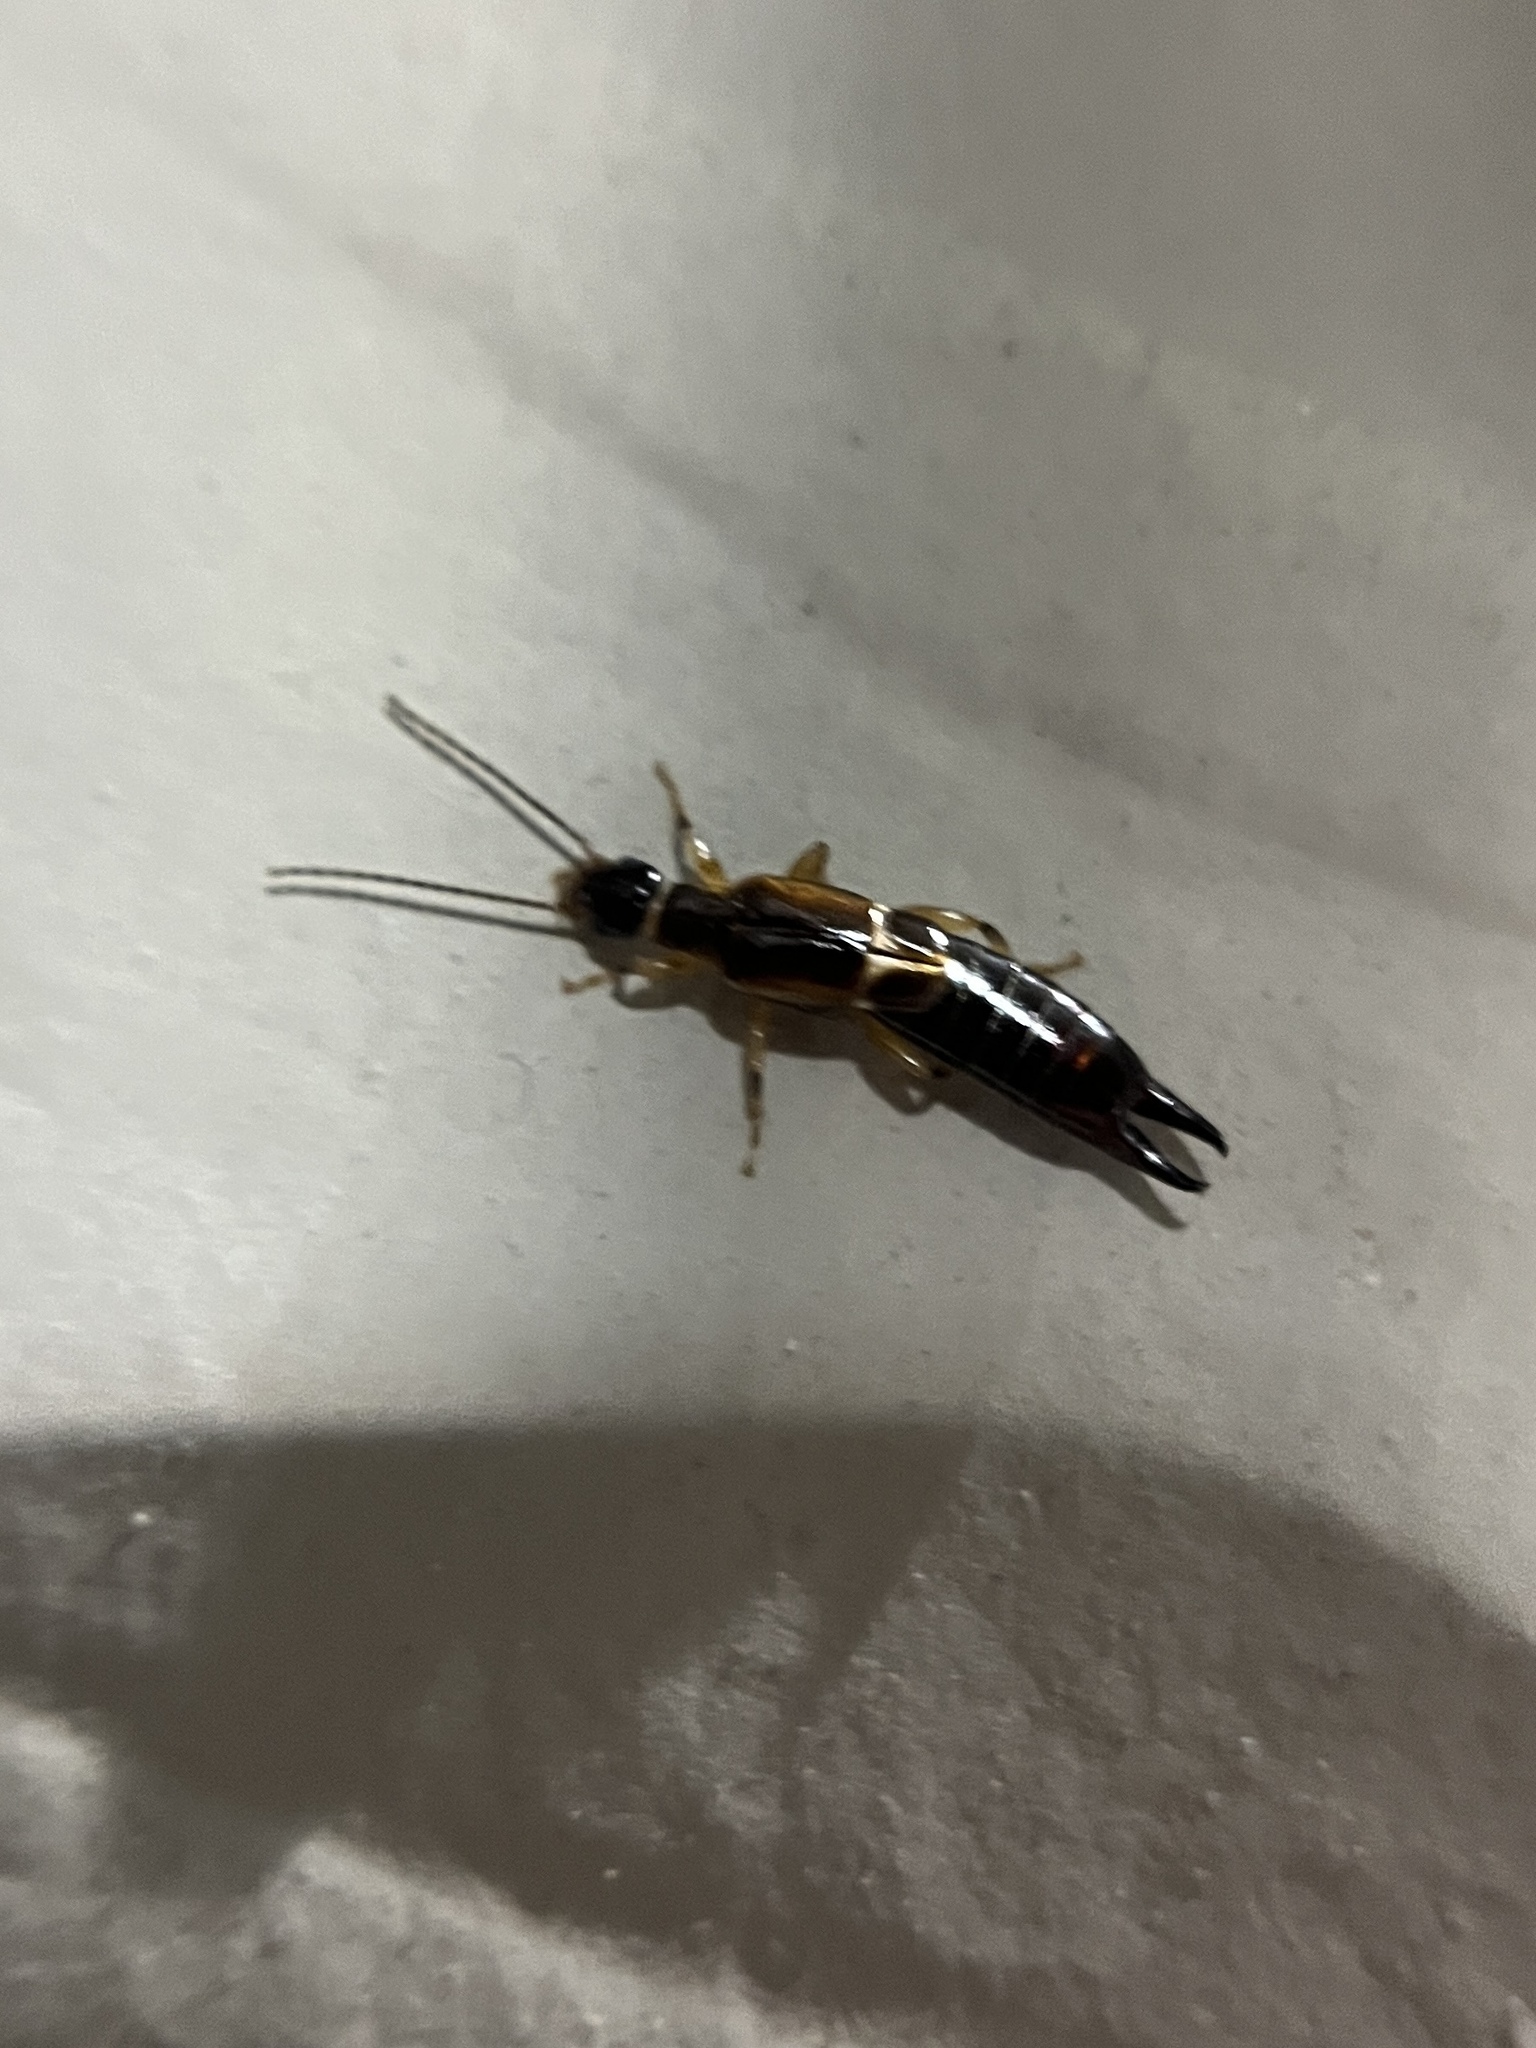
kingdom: Animalia
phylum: Arthropoda
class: Insecta
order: Dermaptera
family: Anisolabididae
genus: Euborellia
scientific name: Euborellia cincticollis
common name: African earwig
